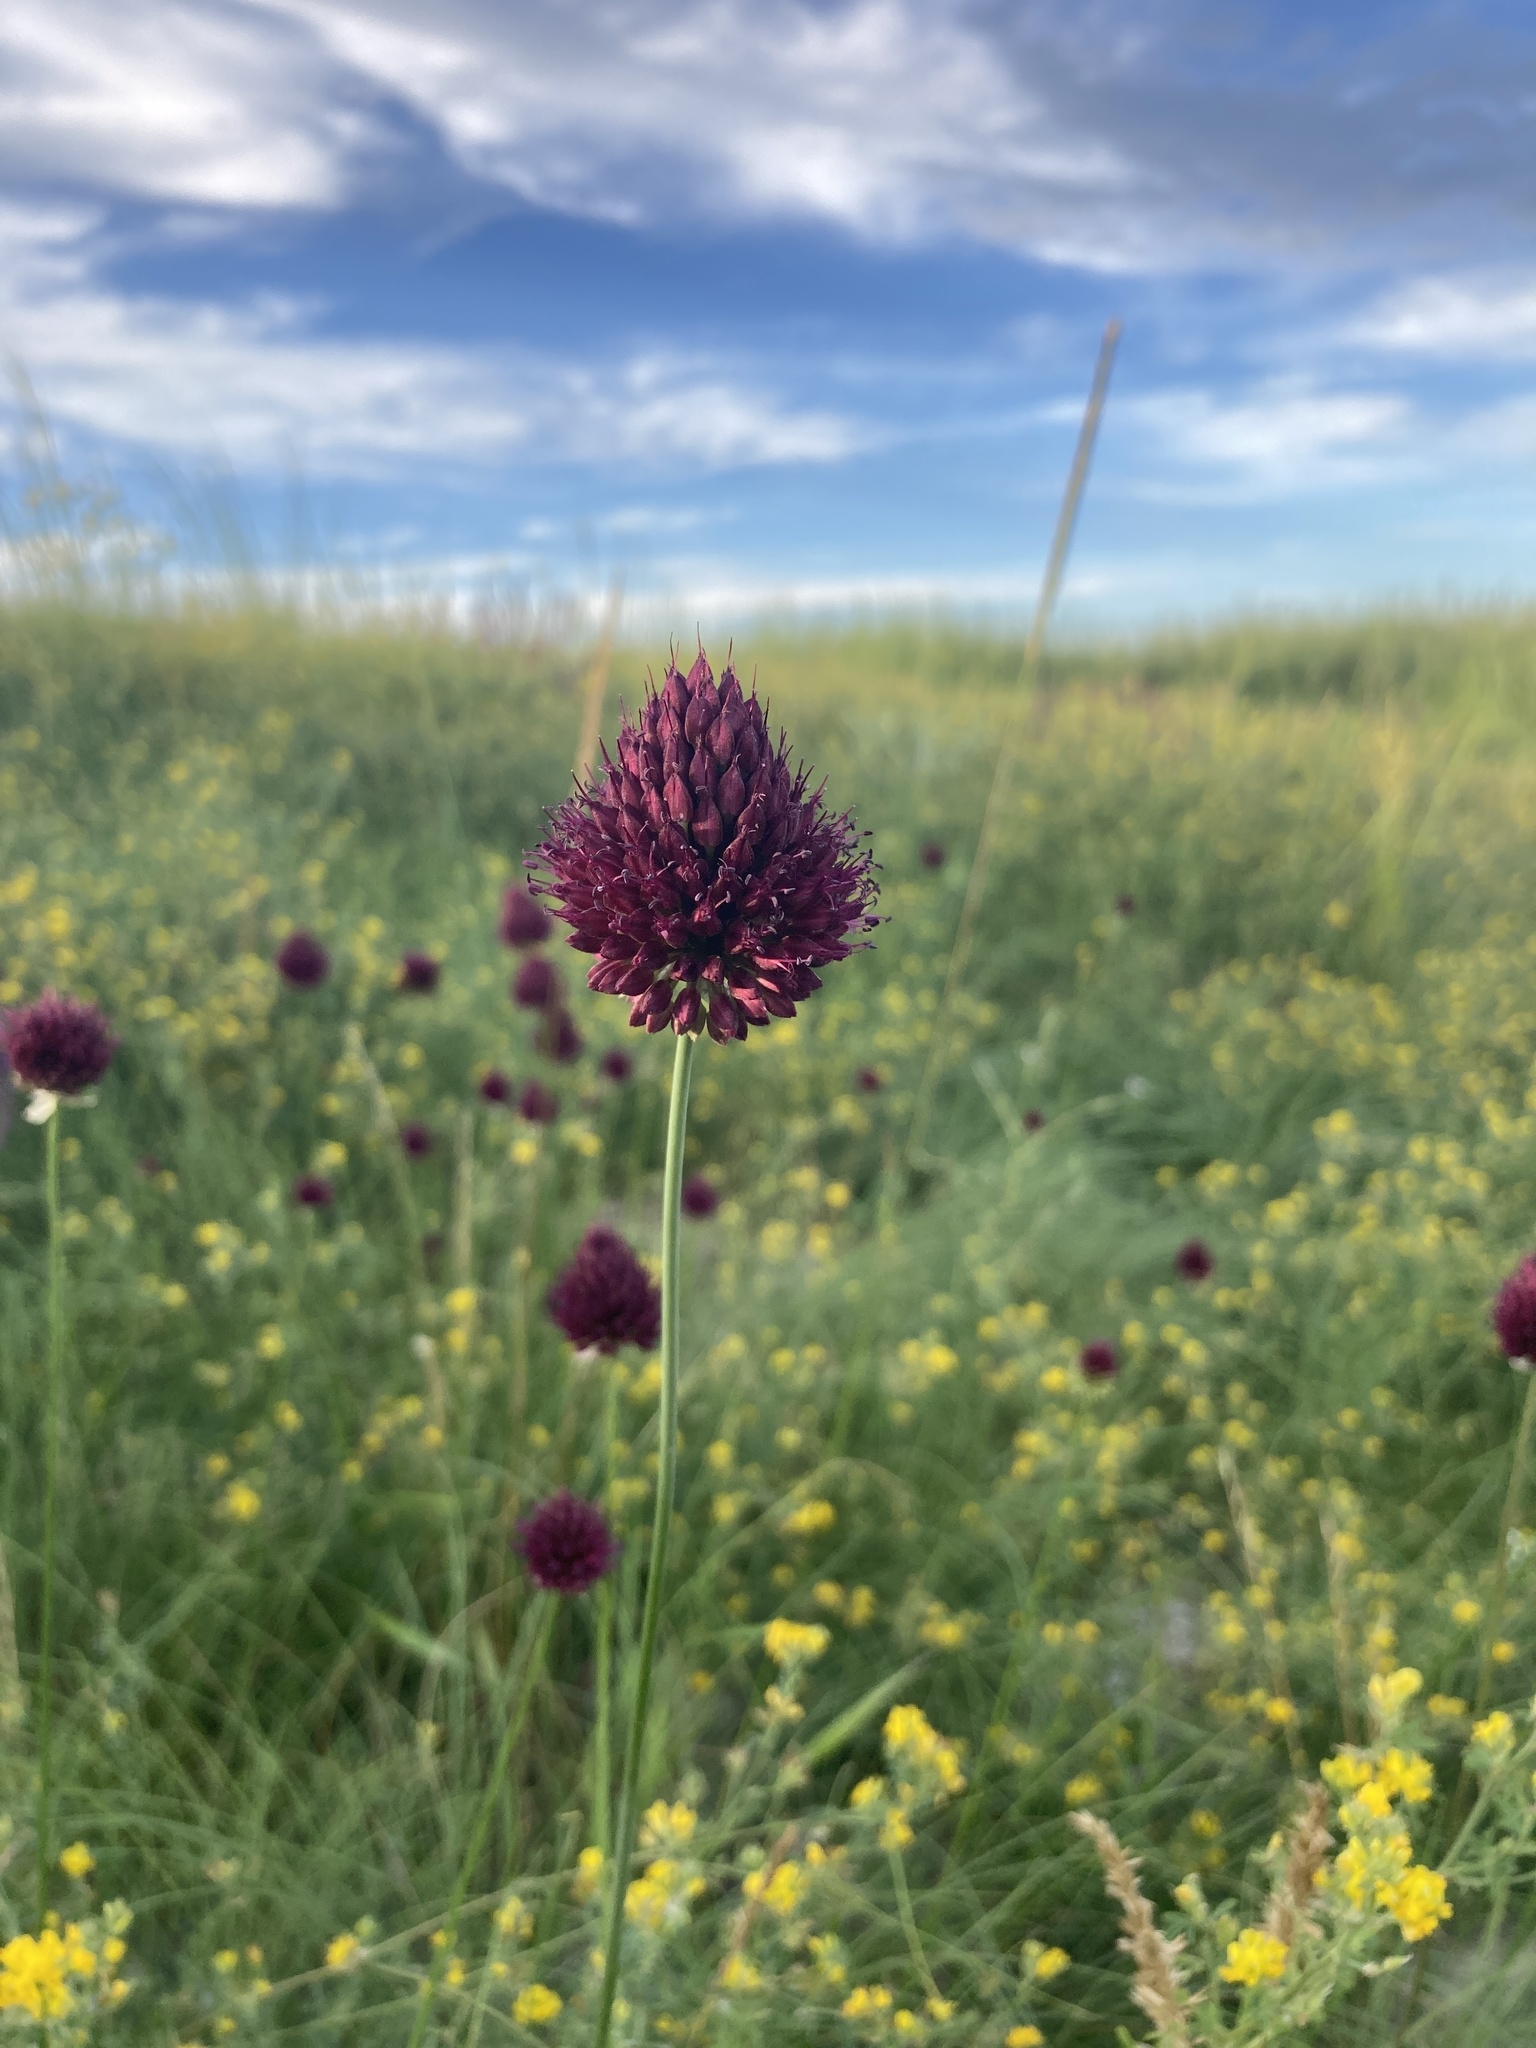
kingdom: Plantae
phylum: Tracheophyta
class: Liliopsida
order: Asparagales
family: Amaryllidaceae
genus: Allium
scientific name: Allium sphaerocephalon
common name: Round-headed leek
